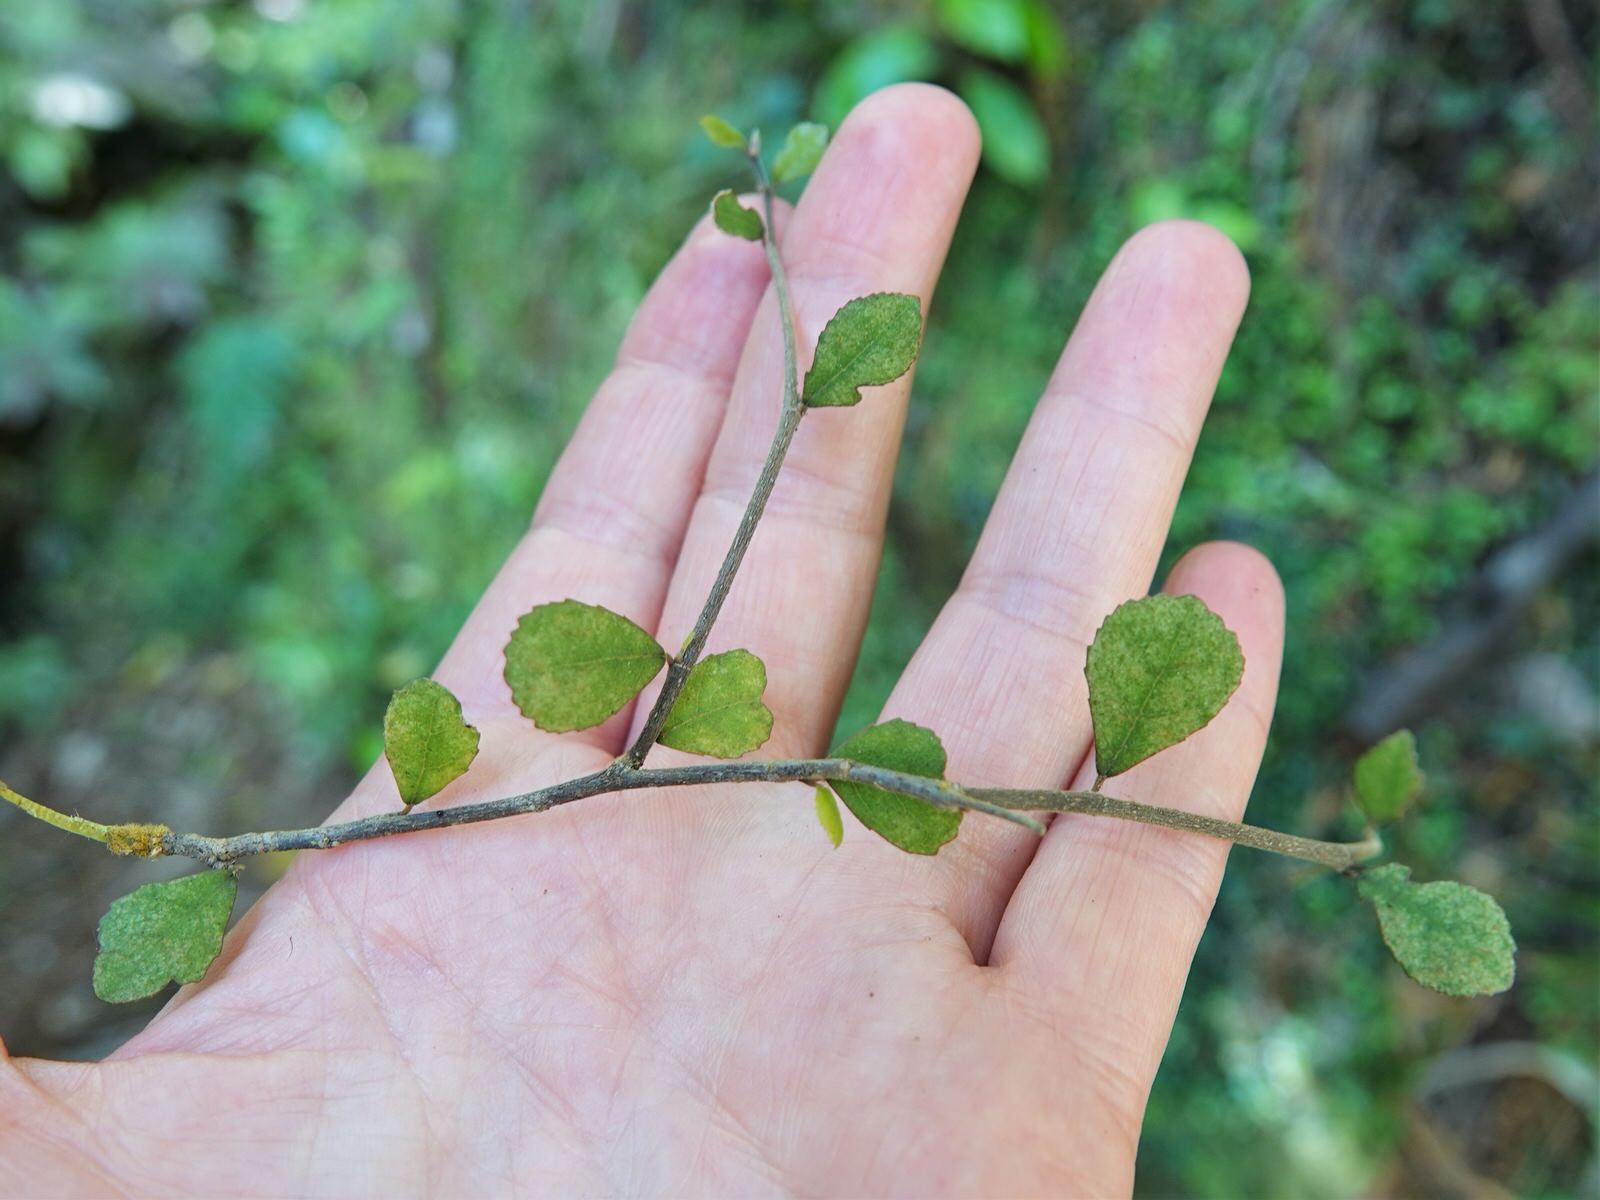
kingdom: Plantae
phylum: Tracheophyta
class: Magnoliopsida
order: Rosales
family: Moraceae
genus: Paratrophis
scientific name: Paratrophis microphylla
